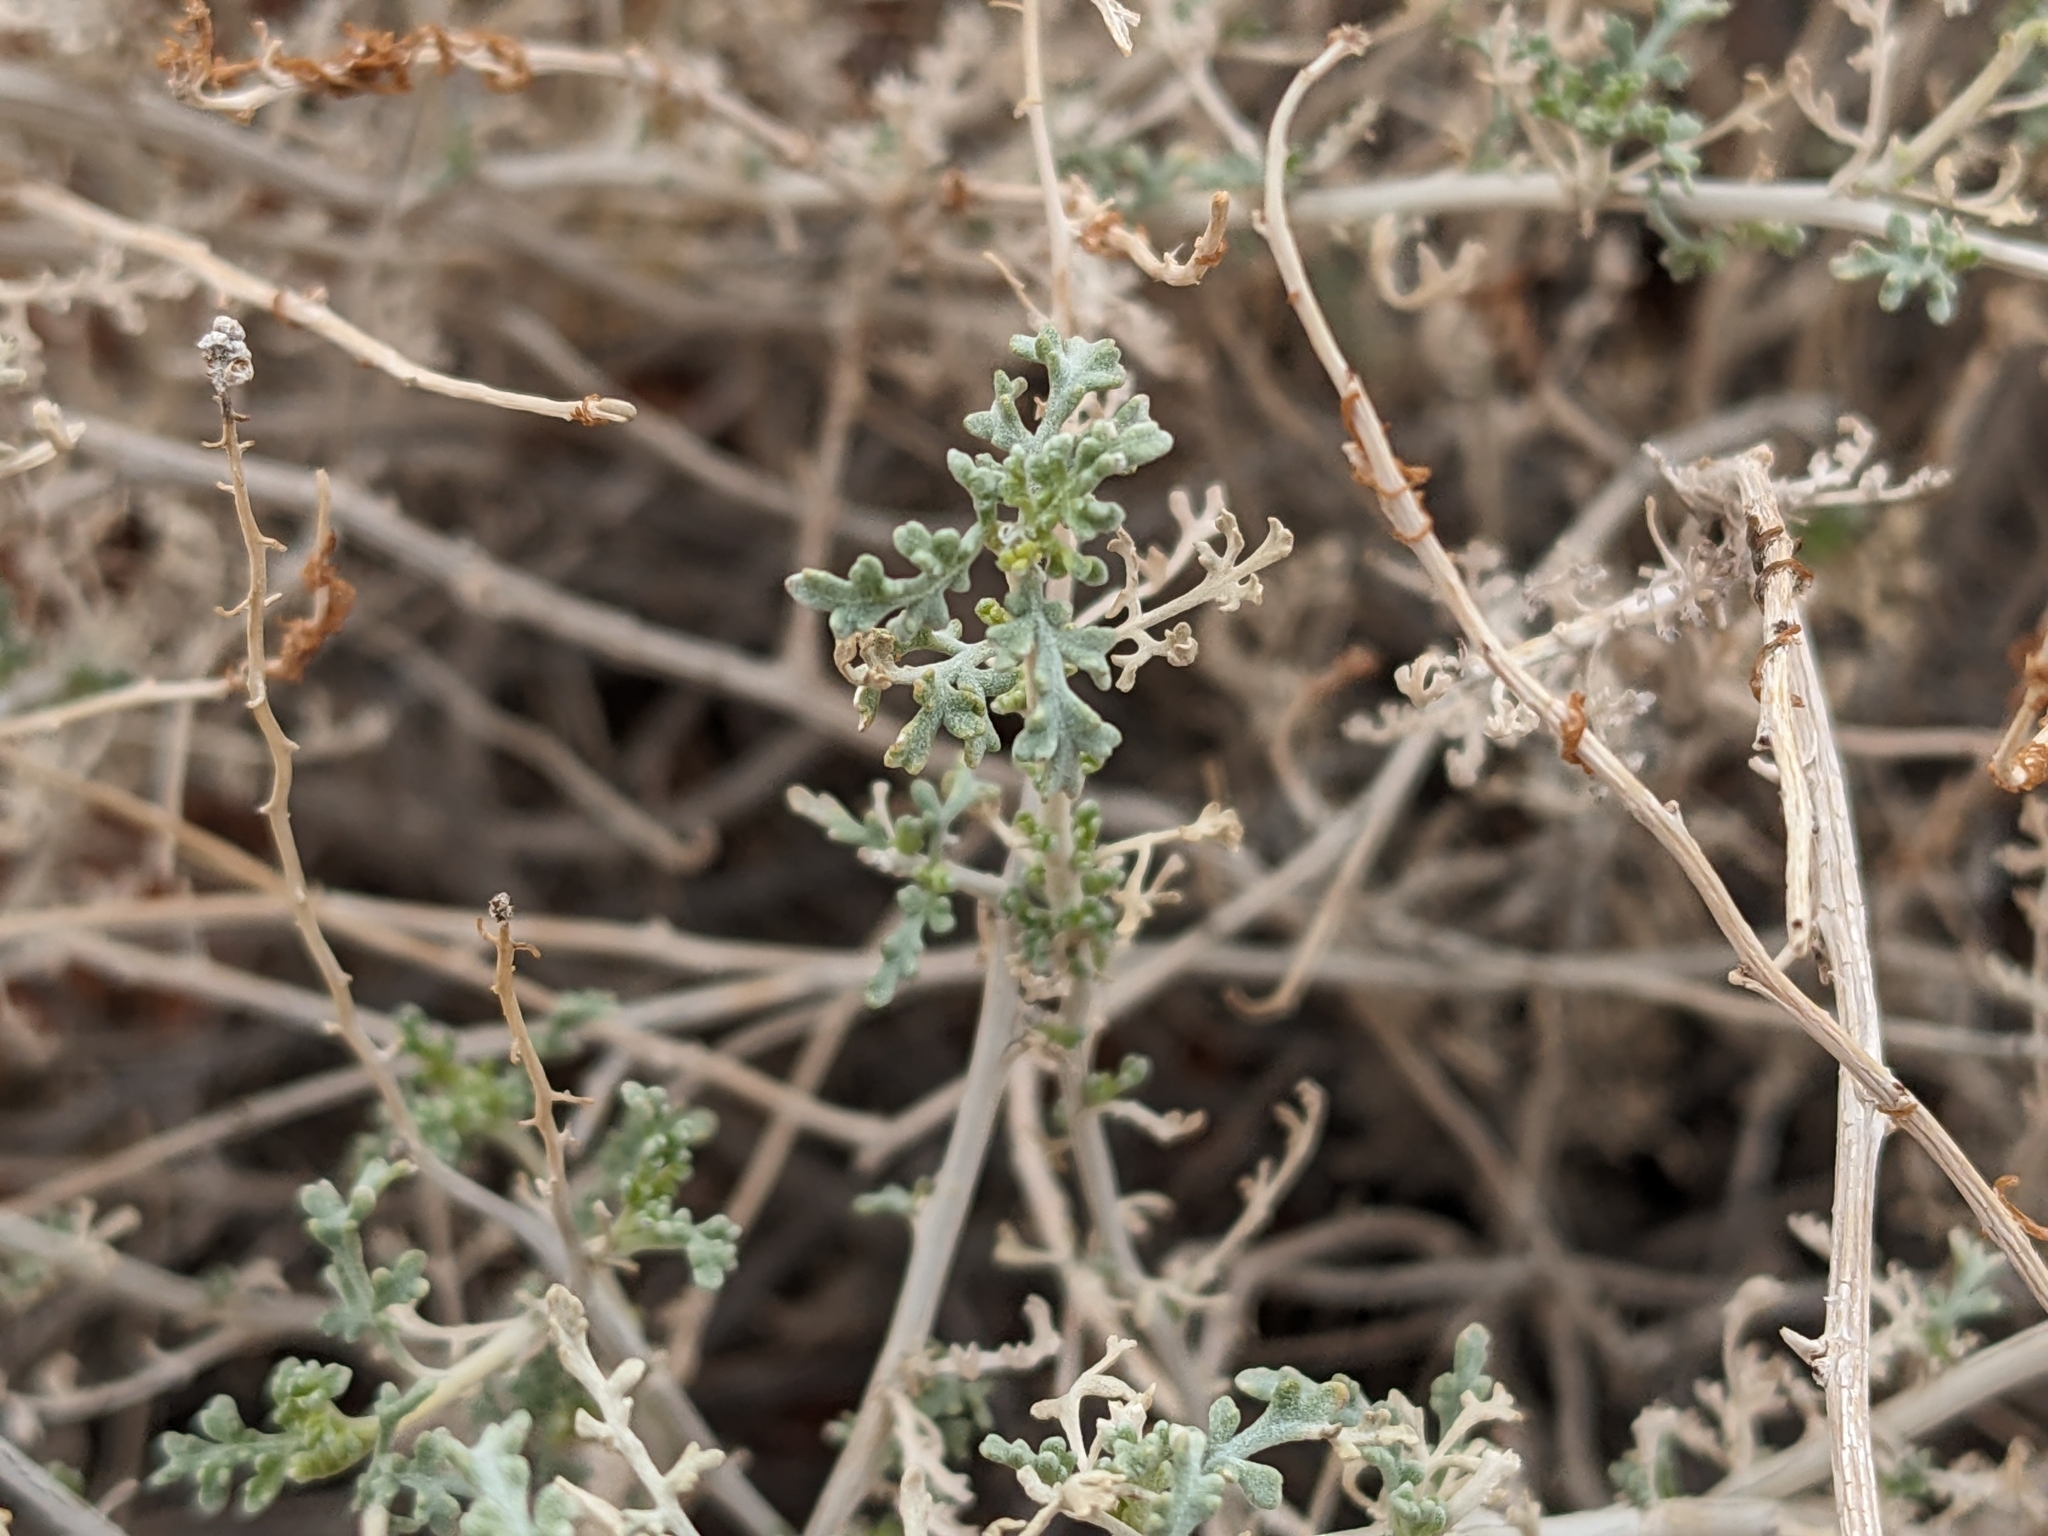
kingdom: Plantae
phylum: Tracheophyta
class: Magnoliopsida
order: Asterales
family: Asteraceae
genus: Ambrosia
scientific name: Ambrosia dumosa
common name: Bur-sage
